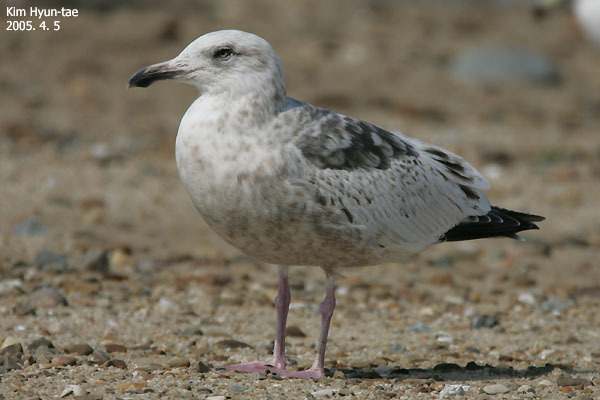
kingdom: Animalia
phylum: Chordata
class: Aves
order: Charadriiformes
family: Laridae
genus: Larus
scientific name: Larus schistisagus
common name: Slaty-backed gull
